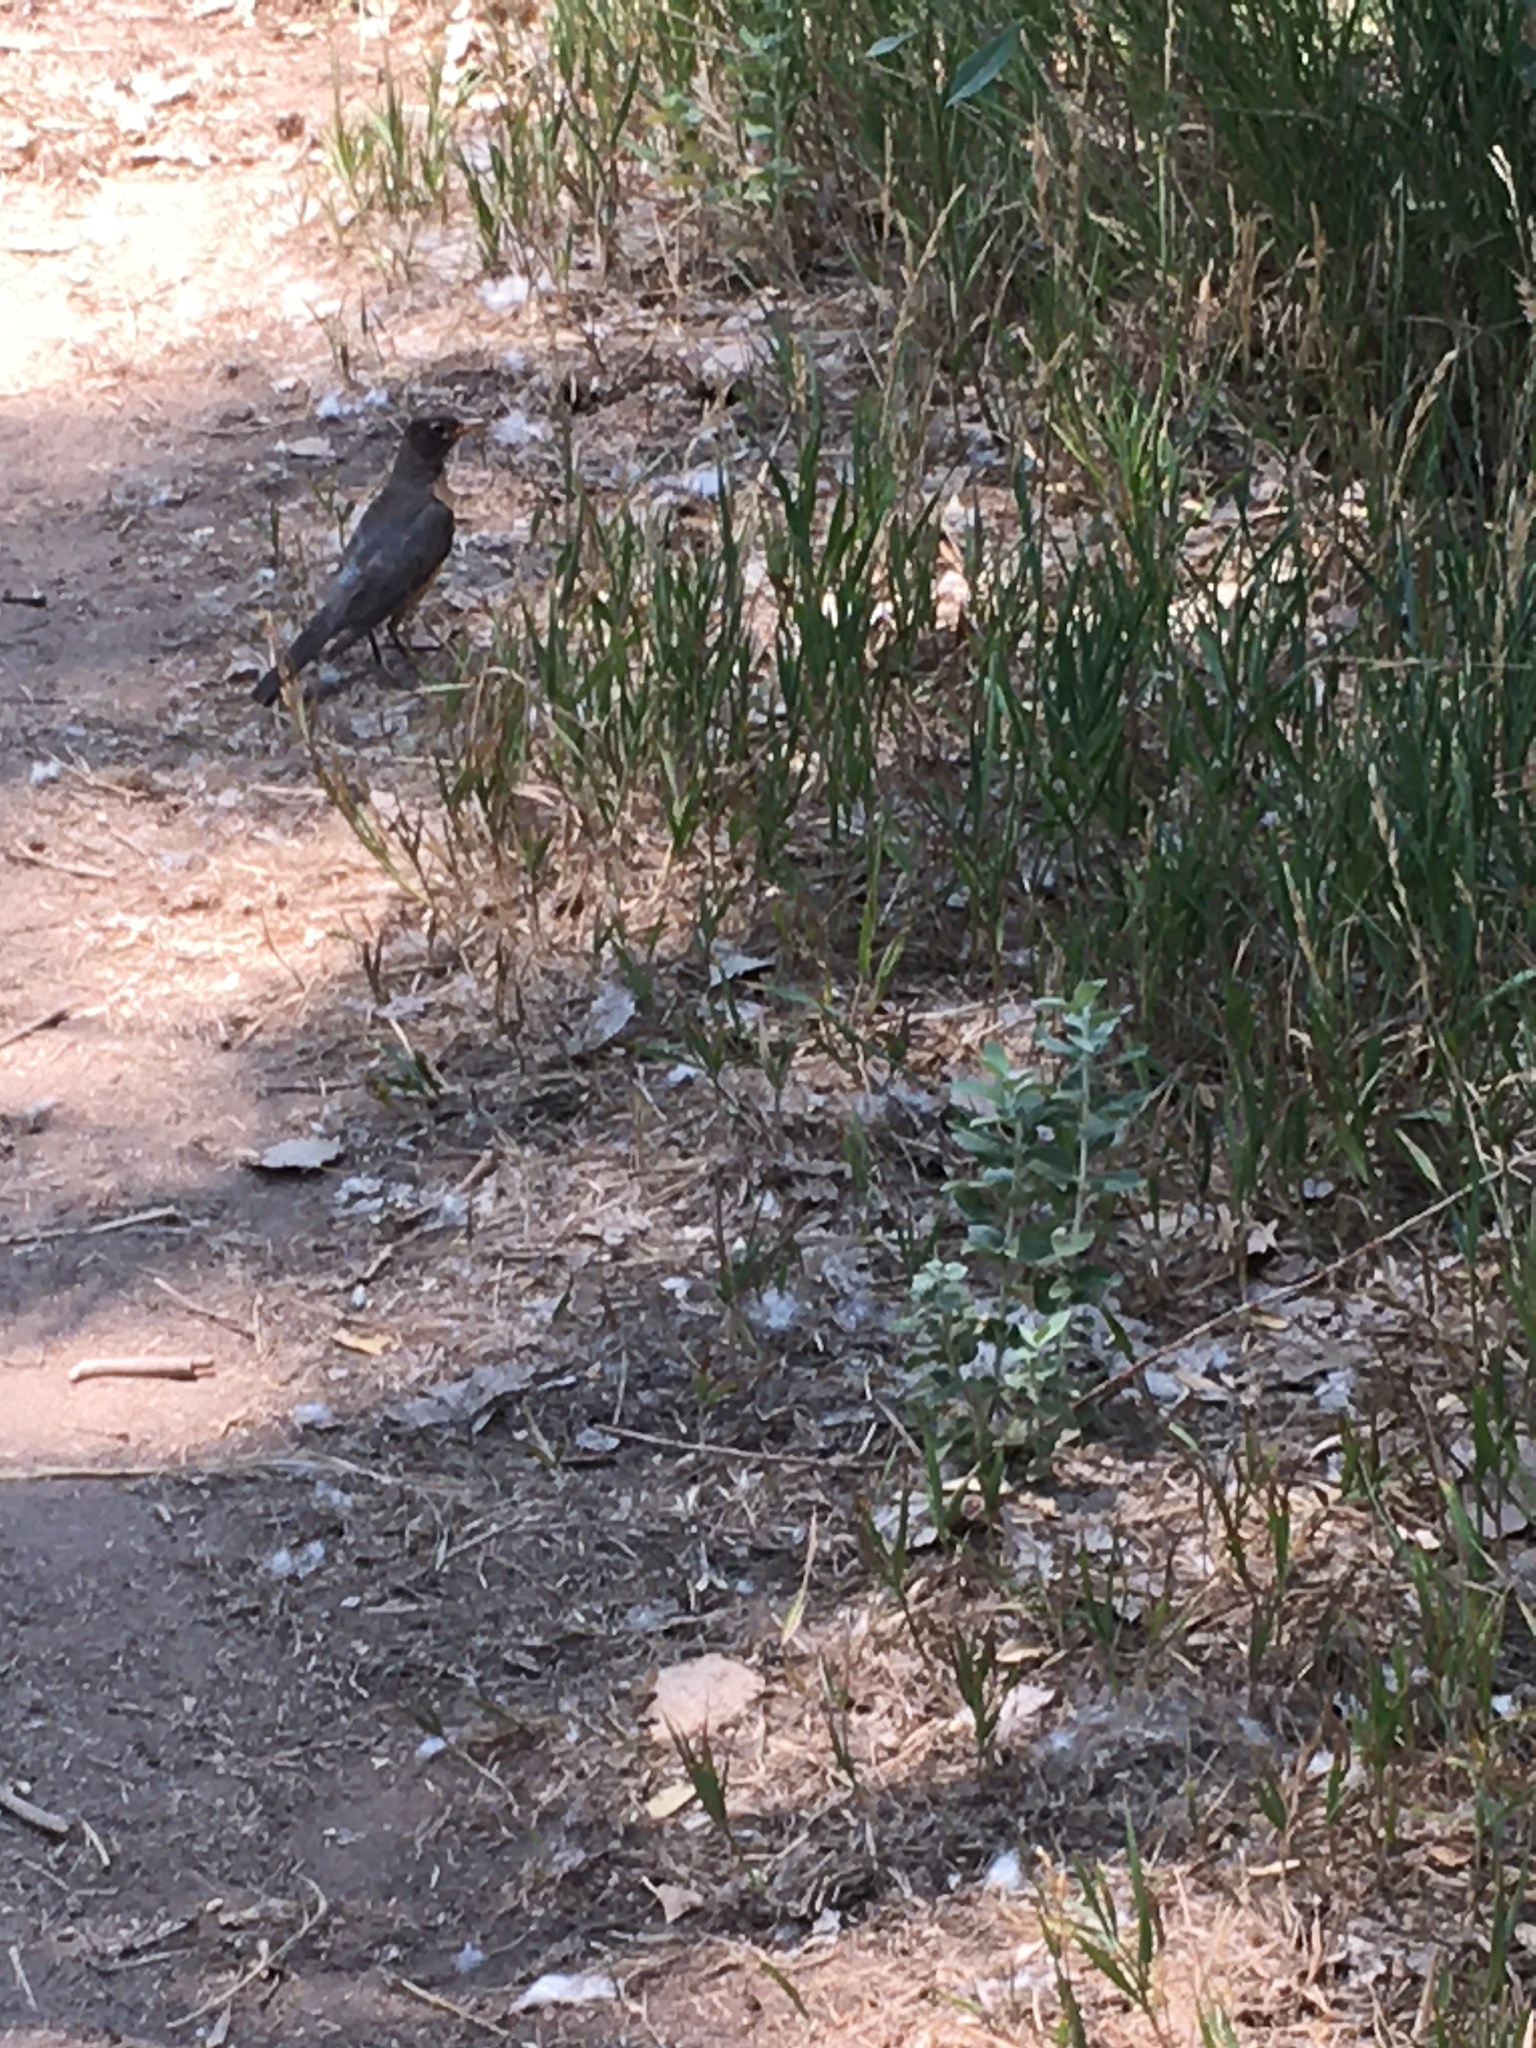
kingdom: Animalia
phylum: Chordata
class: Aves
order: Passeriformes
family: Turdidae
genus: Turdus
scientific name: Turdus migratorius
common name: American robin
